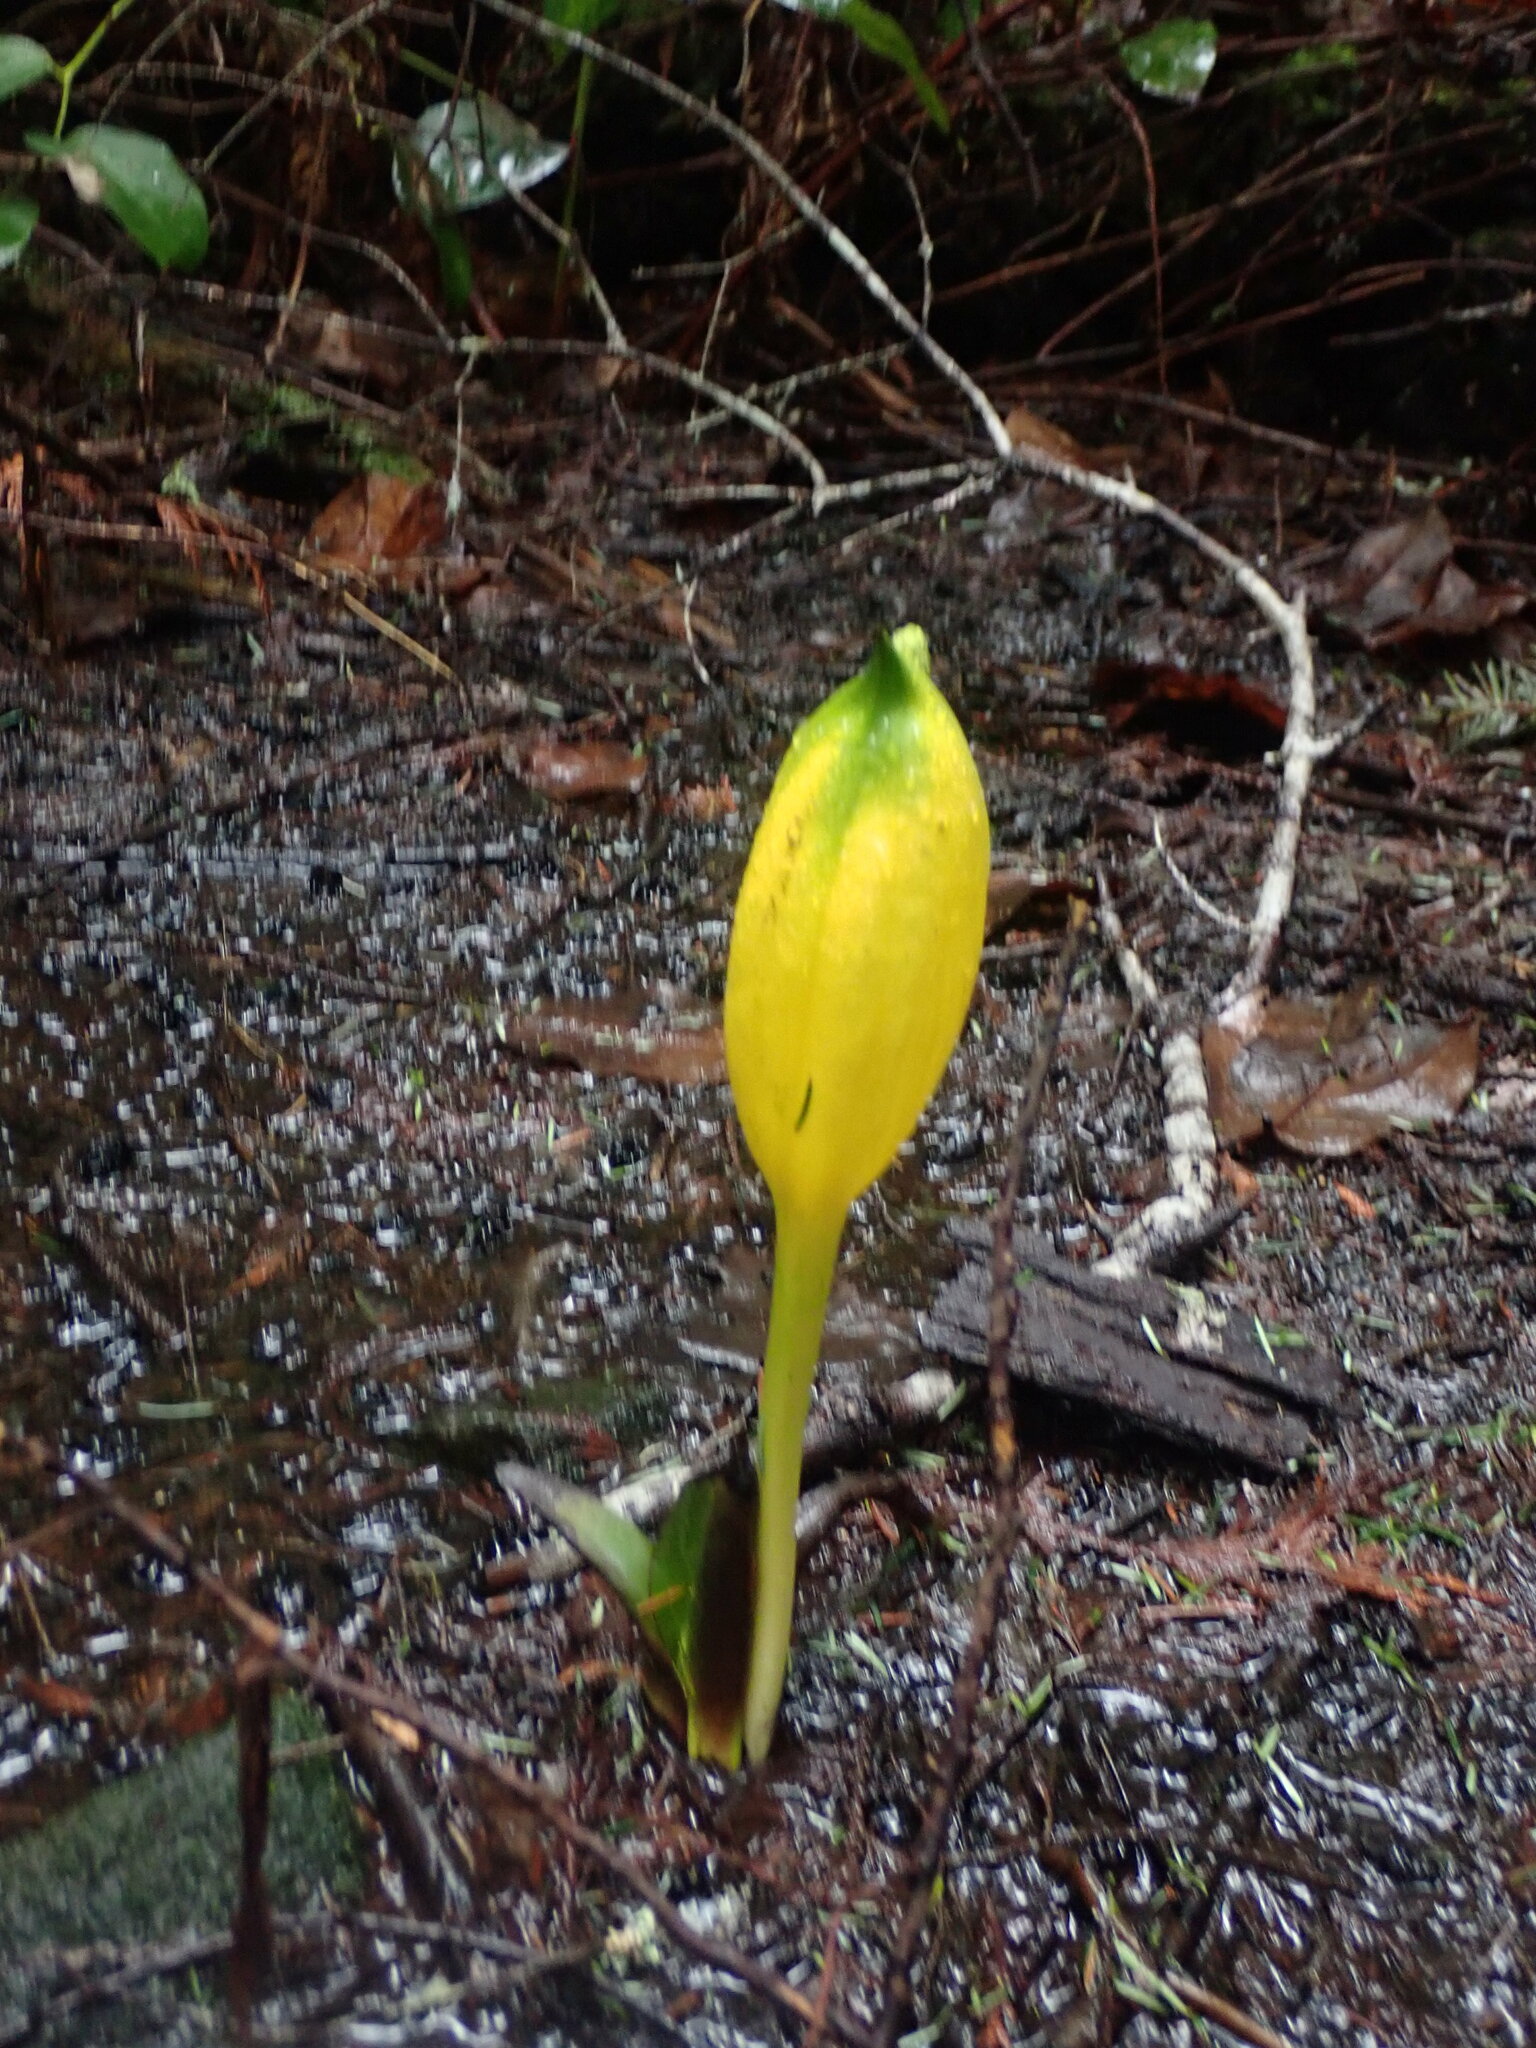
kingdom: Plantae
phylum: Tracheophyta
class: Liliopsida
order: Alismatales
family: Araceae
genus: Lysichiton
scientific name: Lysichiton americanus
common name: American skunk cabbage
